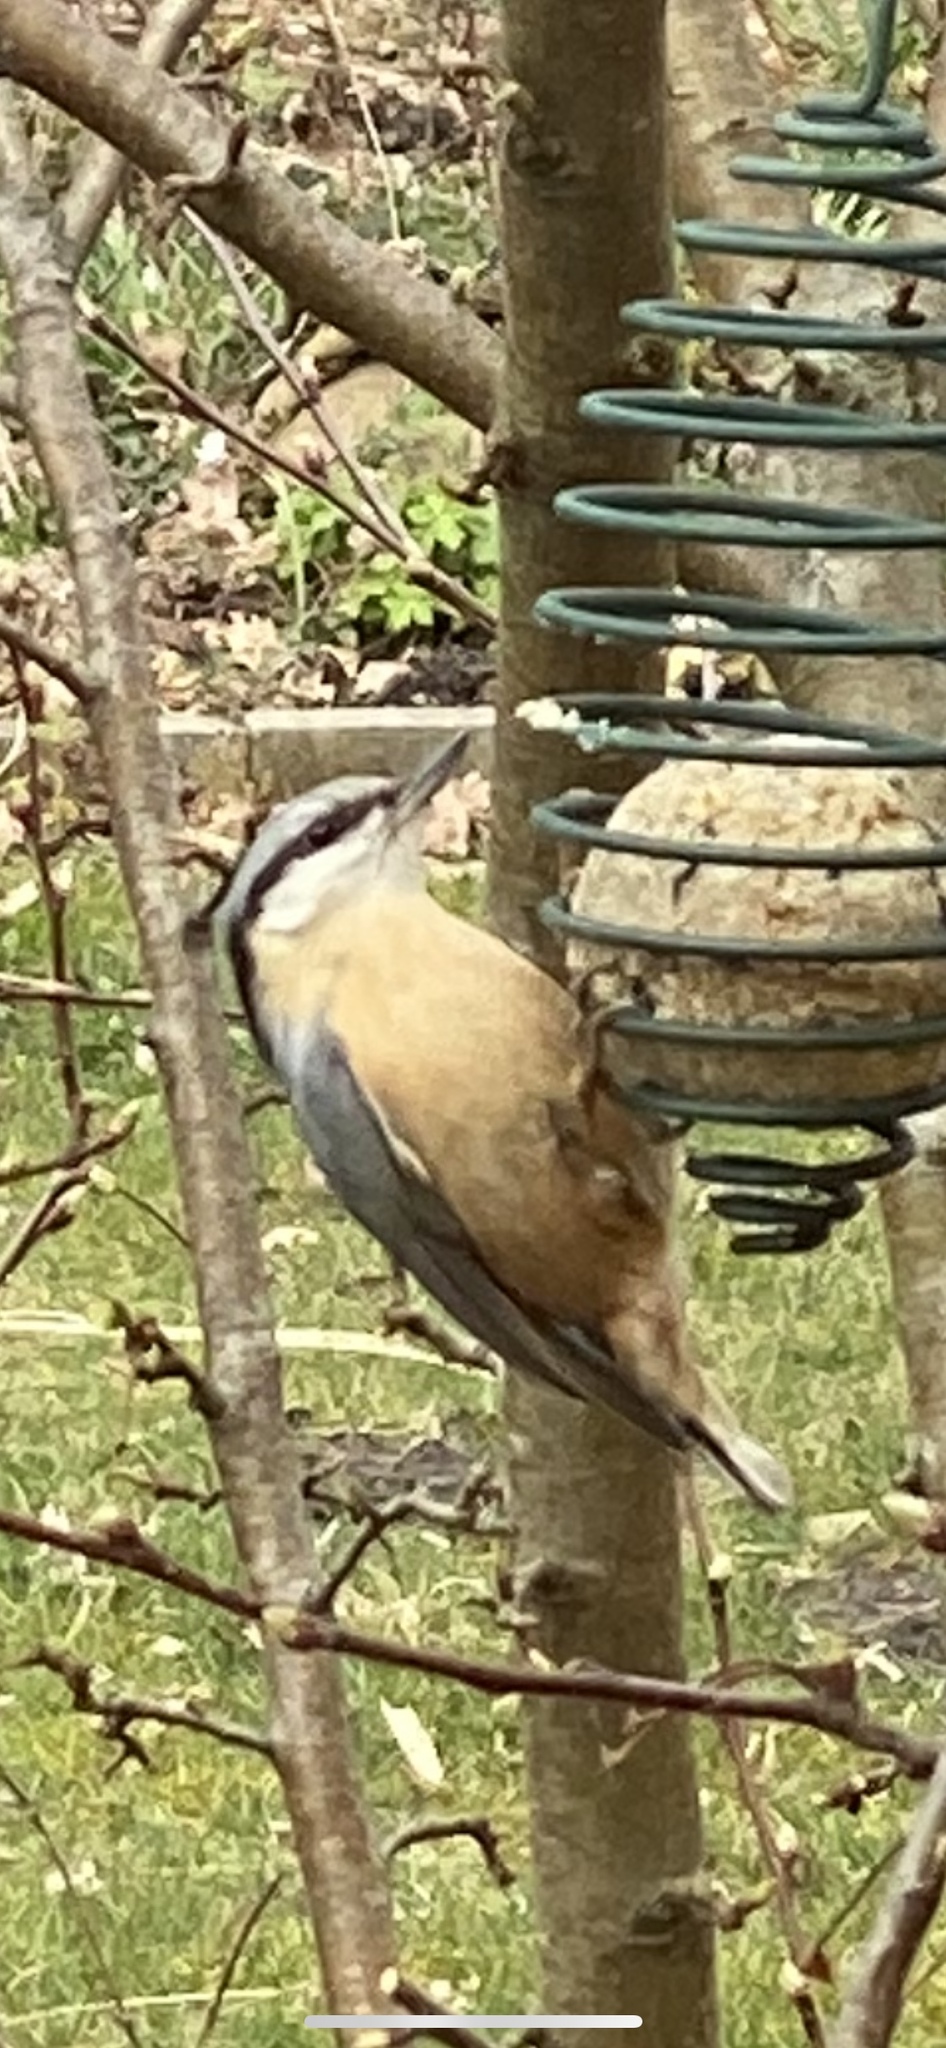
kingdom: Animalia
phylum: Chordata
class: Aves
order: Passeriformes
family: Sittidae
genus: Sitta
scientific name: Sitta europaea
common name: Eurasian nuthatch
